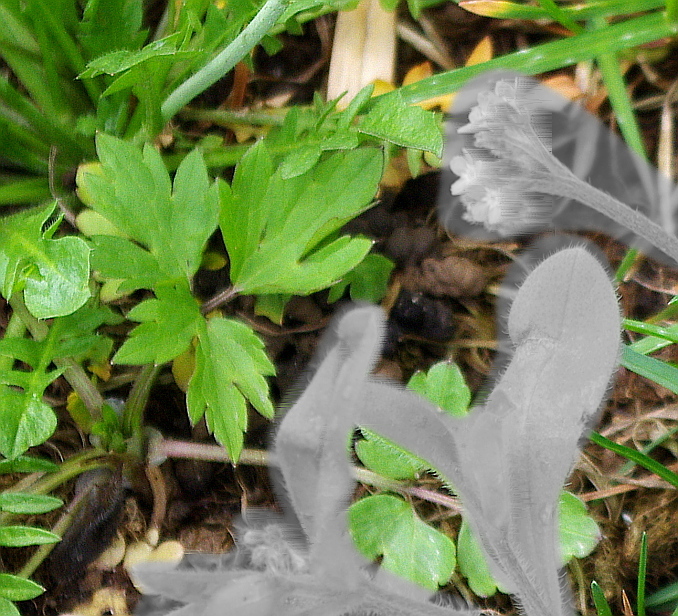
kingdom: Plantae
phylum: Tracheophyta
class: Magnoliopsida
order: Ranunculales
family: Ranunculaceae
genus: Ranunculus
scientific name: Ranunculus repens
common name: Creeping buttercup
